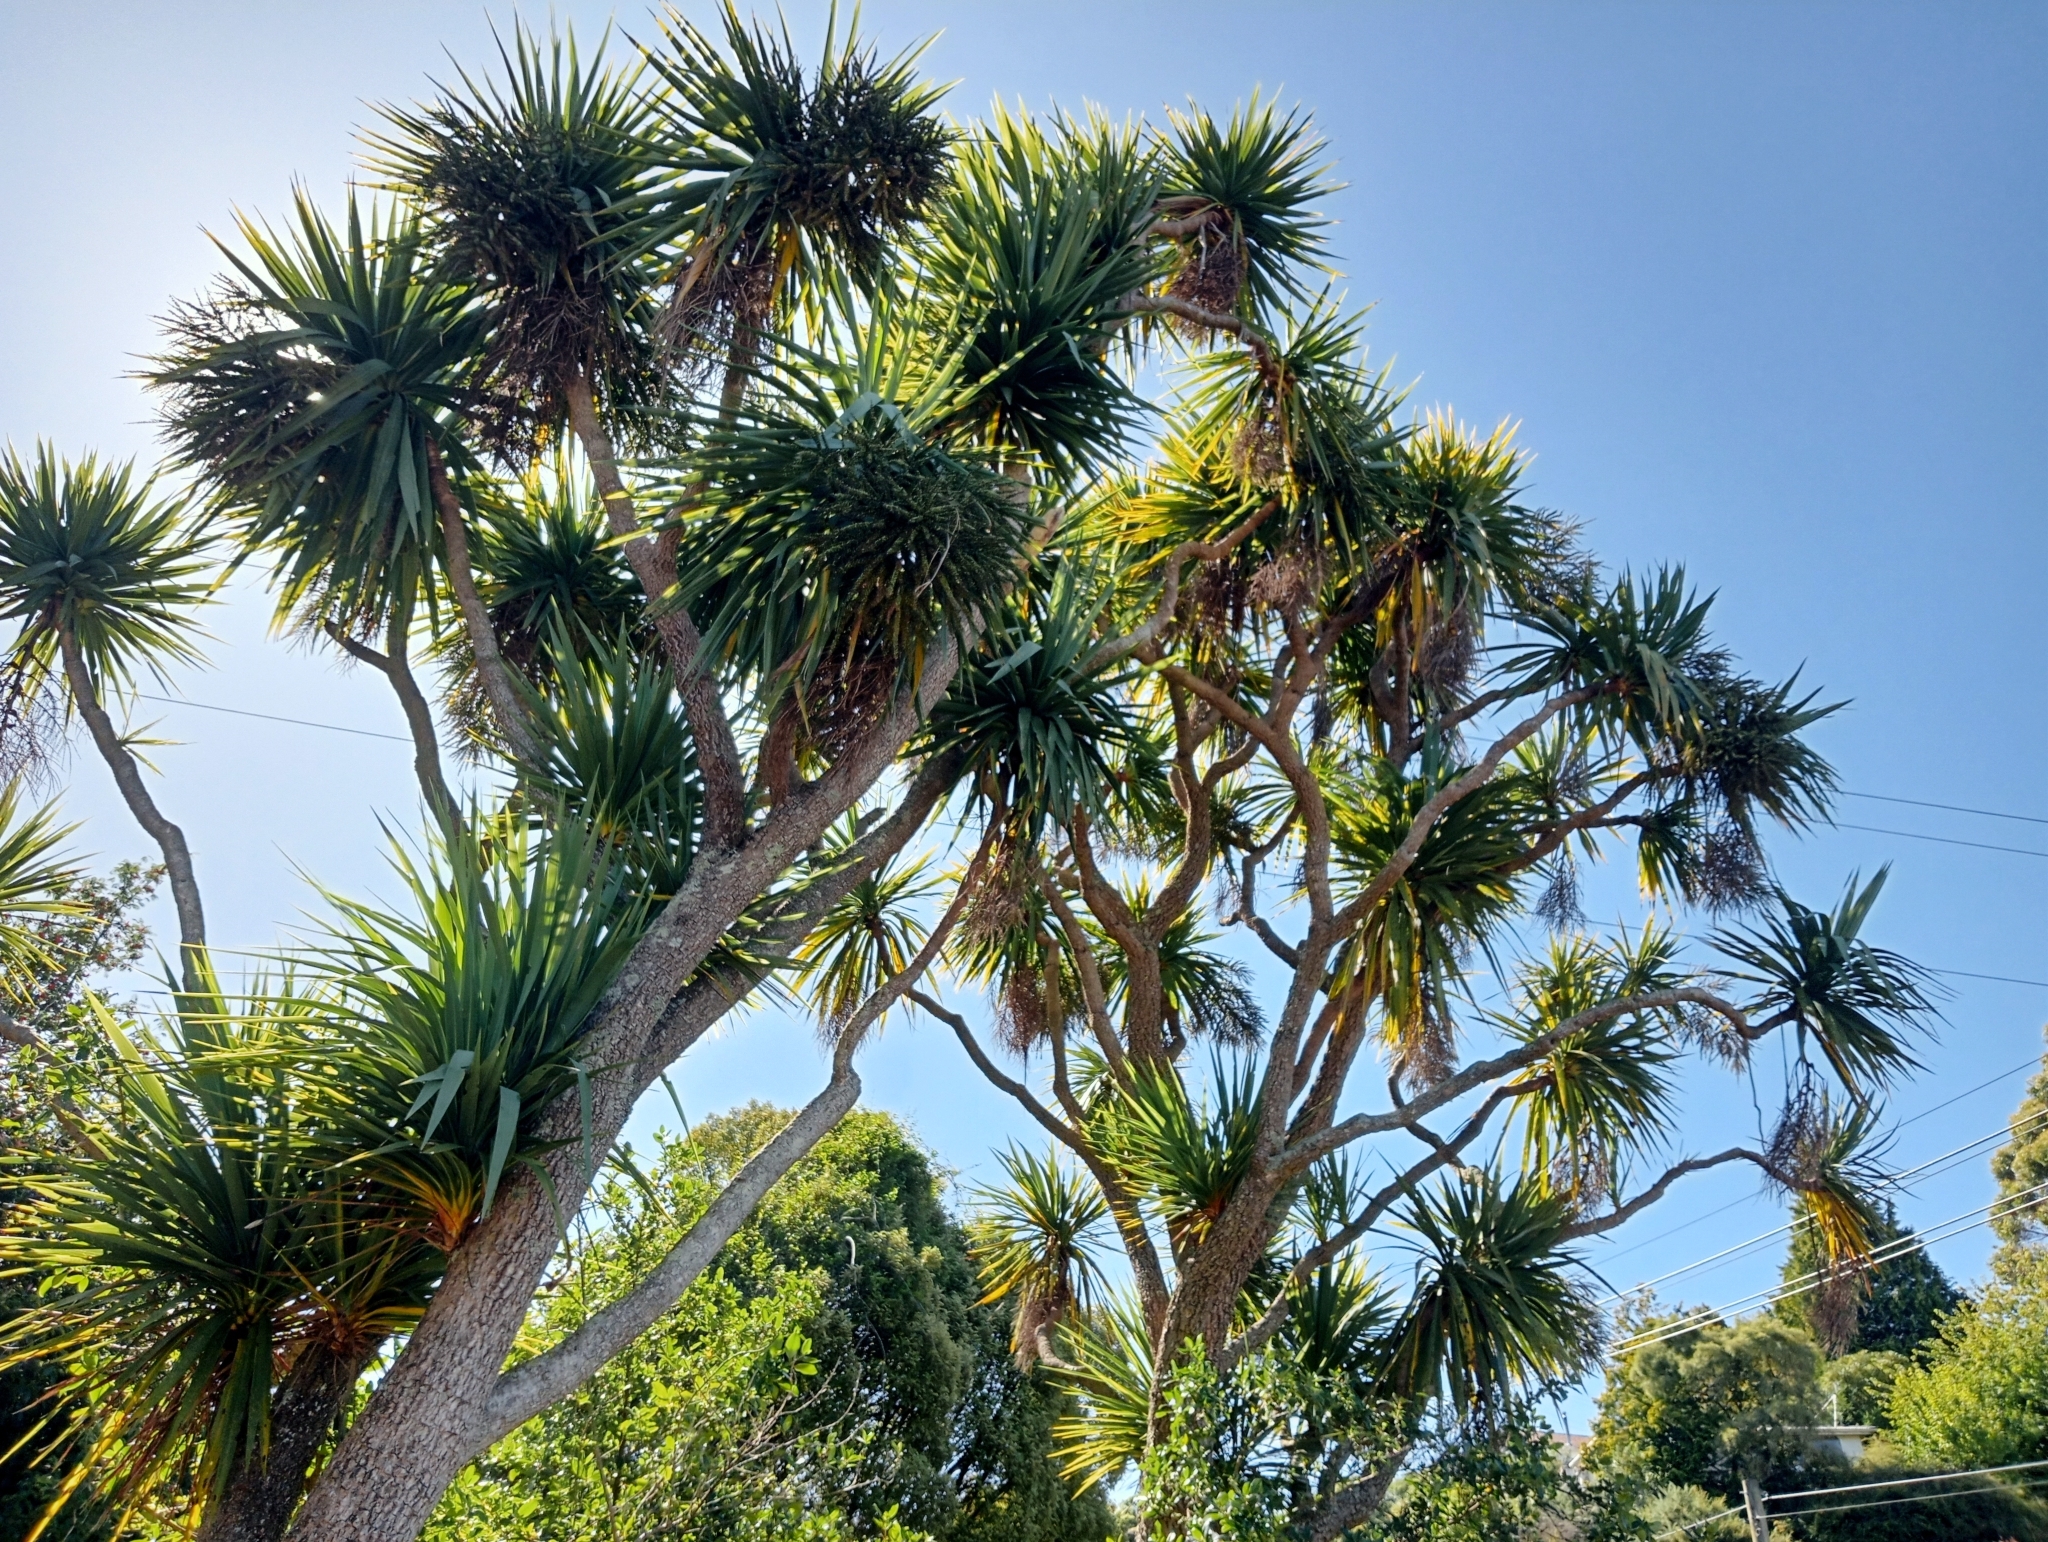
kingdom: Plantae
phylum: Tracheophyta
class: Liliopsida
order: Asparagales
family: Asparagaceae
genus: Cordyline
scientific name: Cordyline australis
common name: Cabbage-palm
